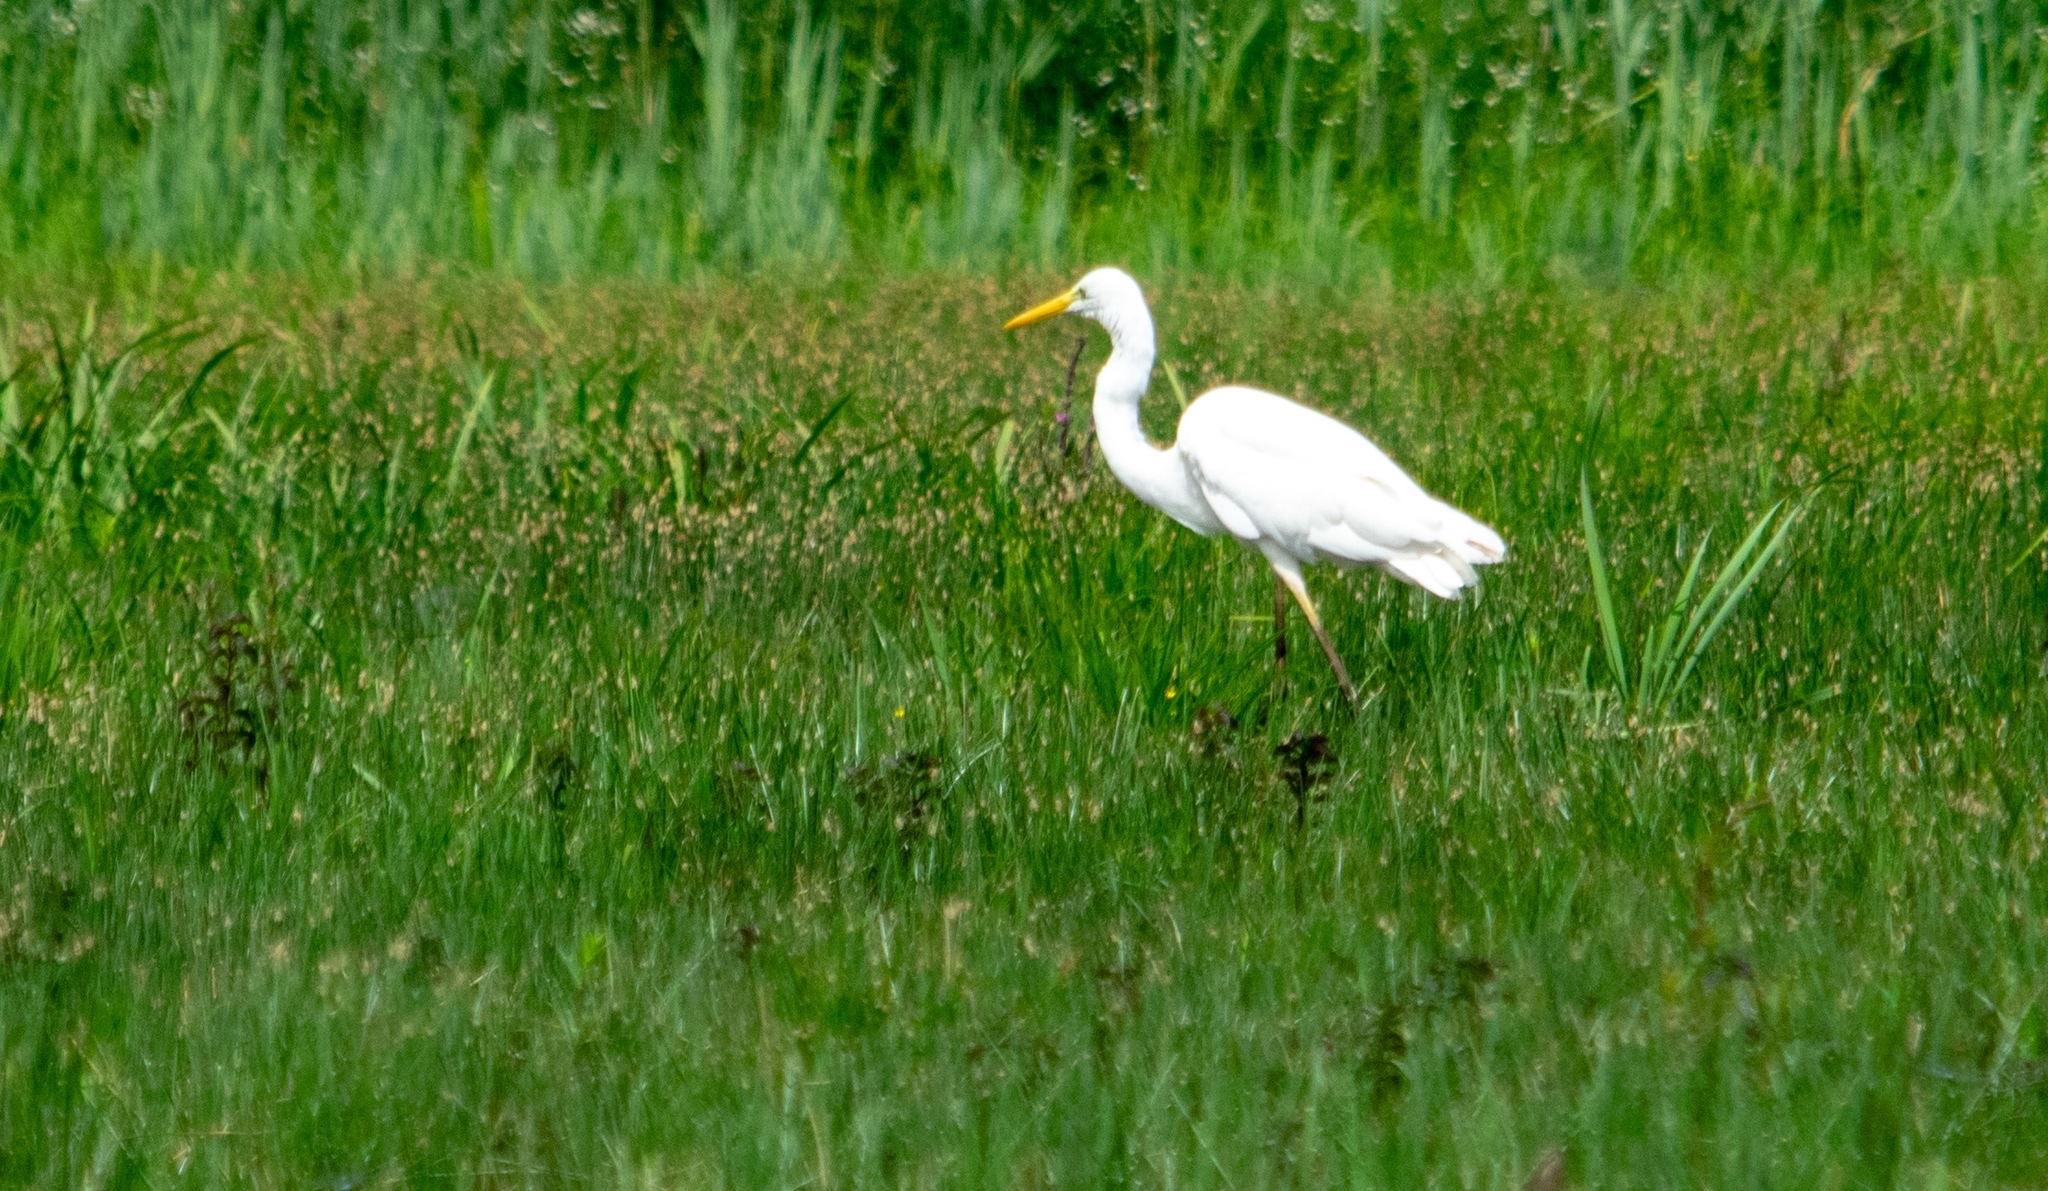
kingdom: Animalia
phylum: Chordata
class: Aves
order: Pelecaniformes
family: Ardeidae
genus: Ardea
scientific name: Ardea alba
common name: Great egret
